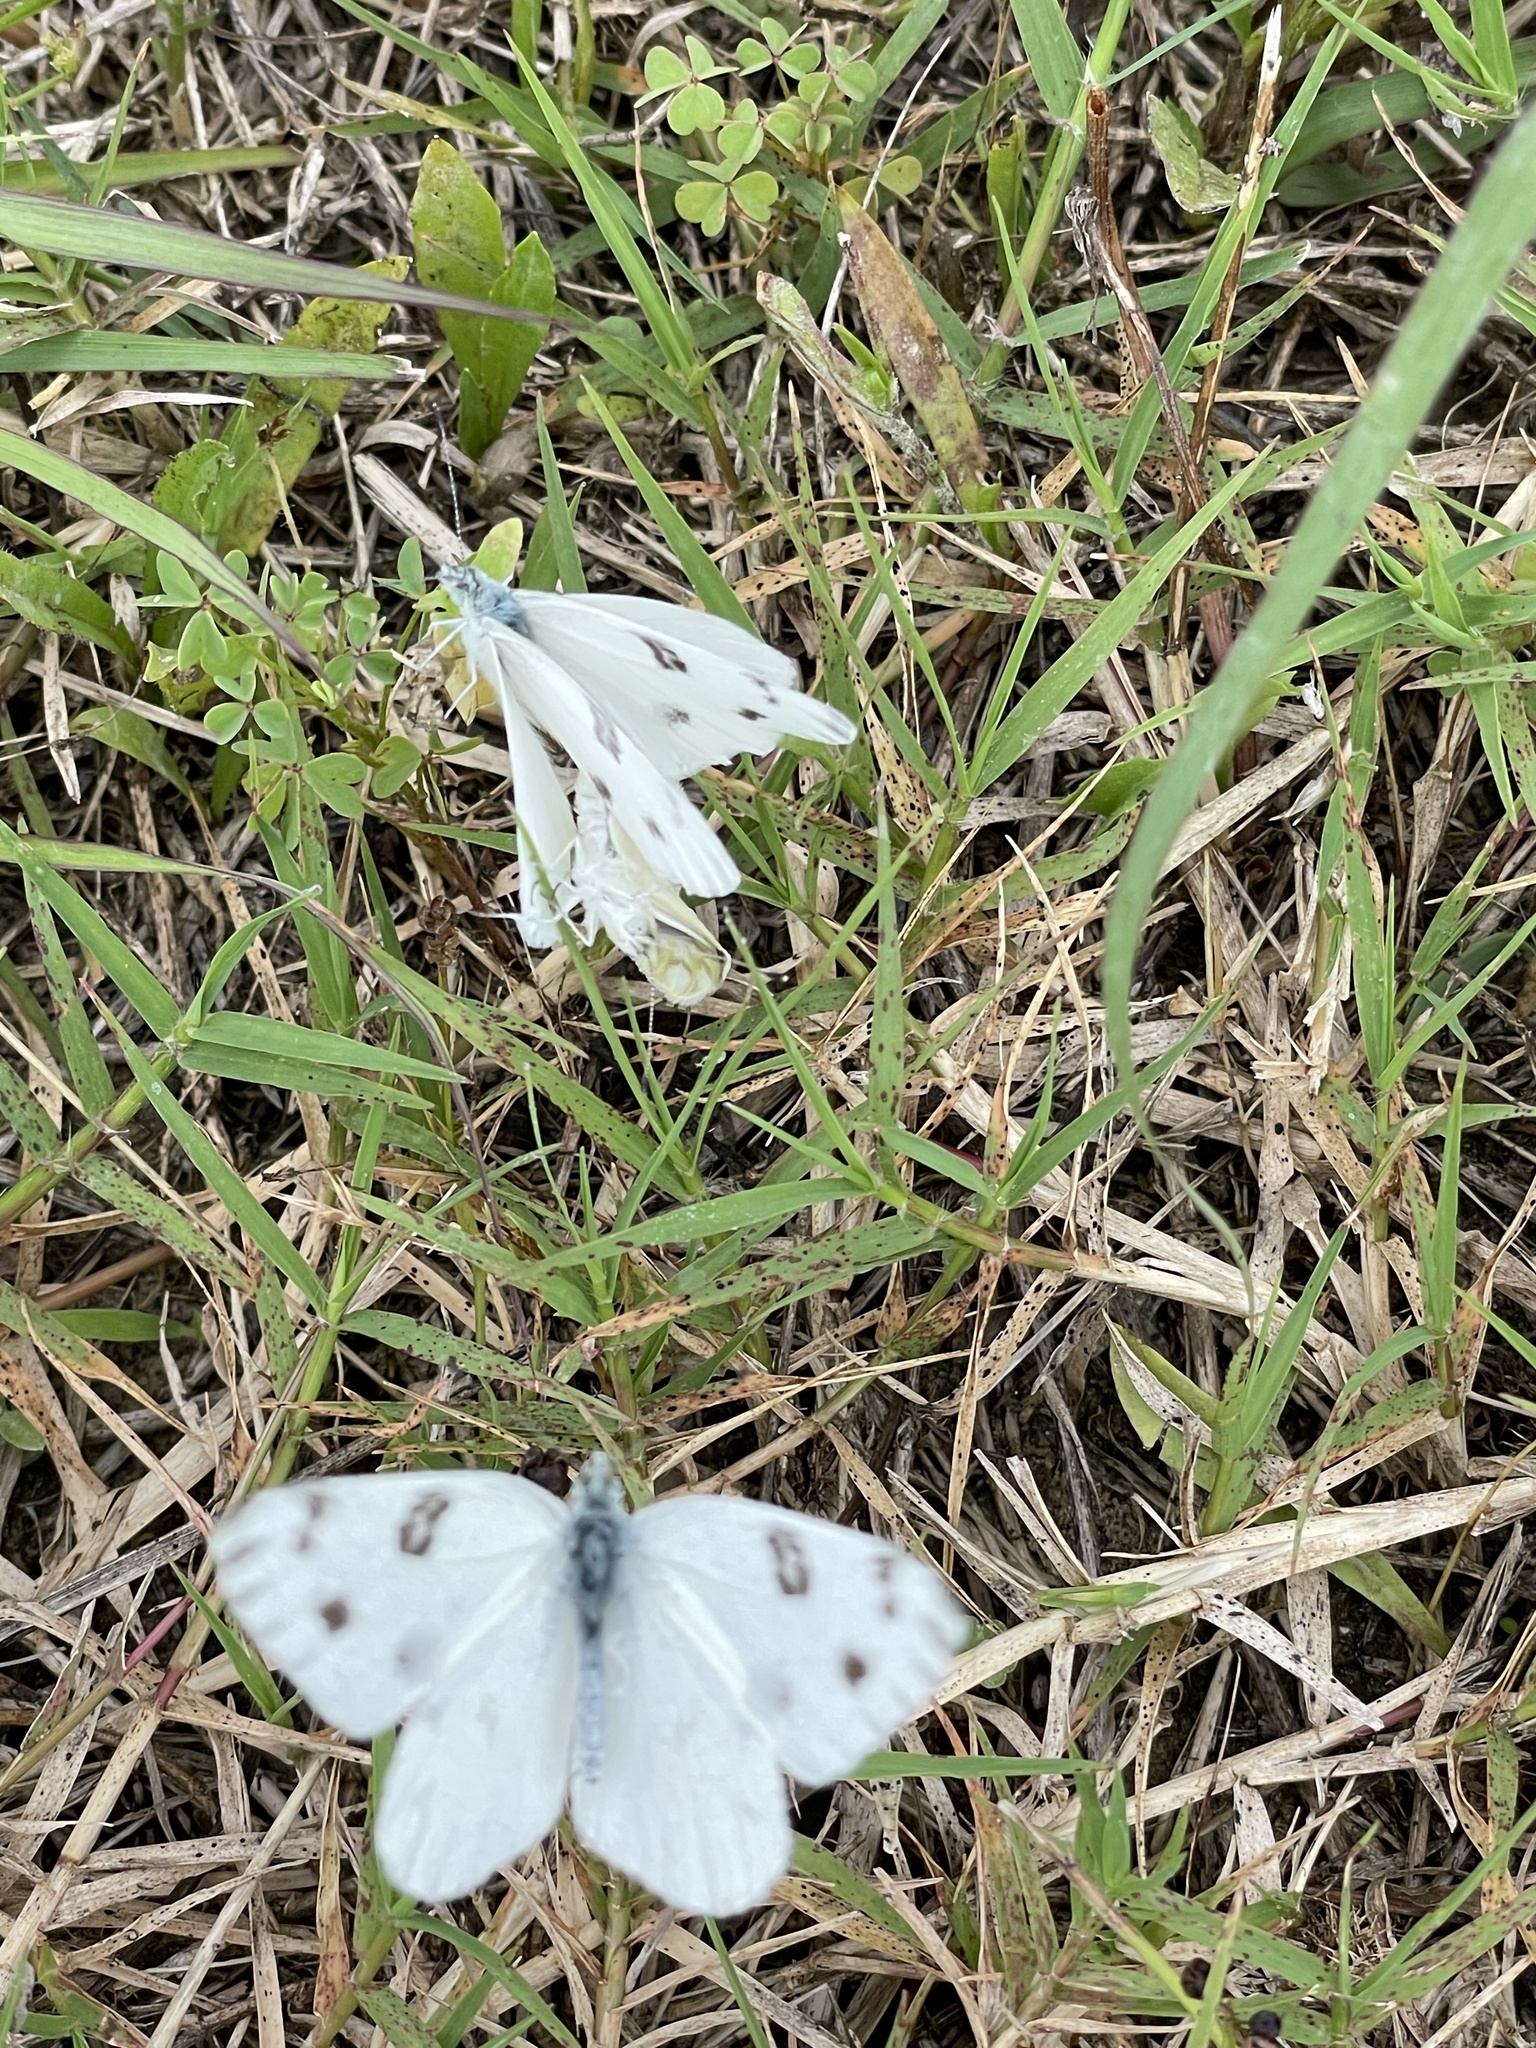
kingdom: Animalia
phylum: Arthropoda
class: Insecta
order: Lepidoptera
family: Pieridae
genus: Pontia
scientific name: Pontia protodice
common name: Checkered white
